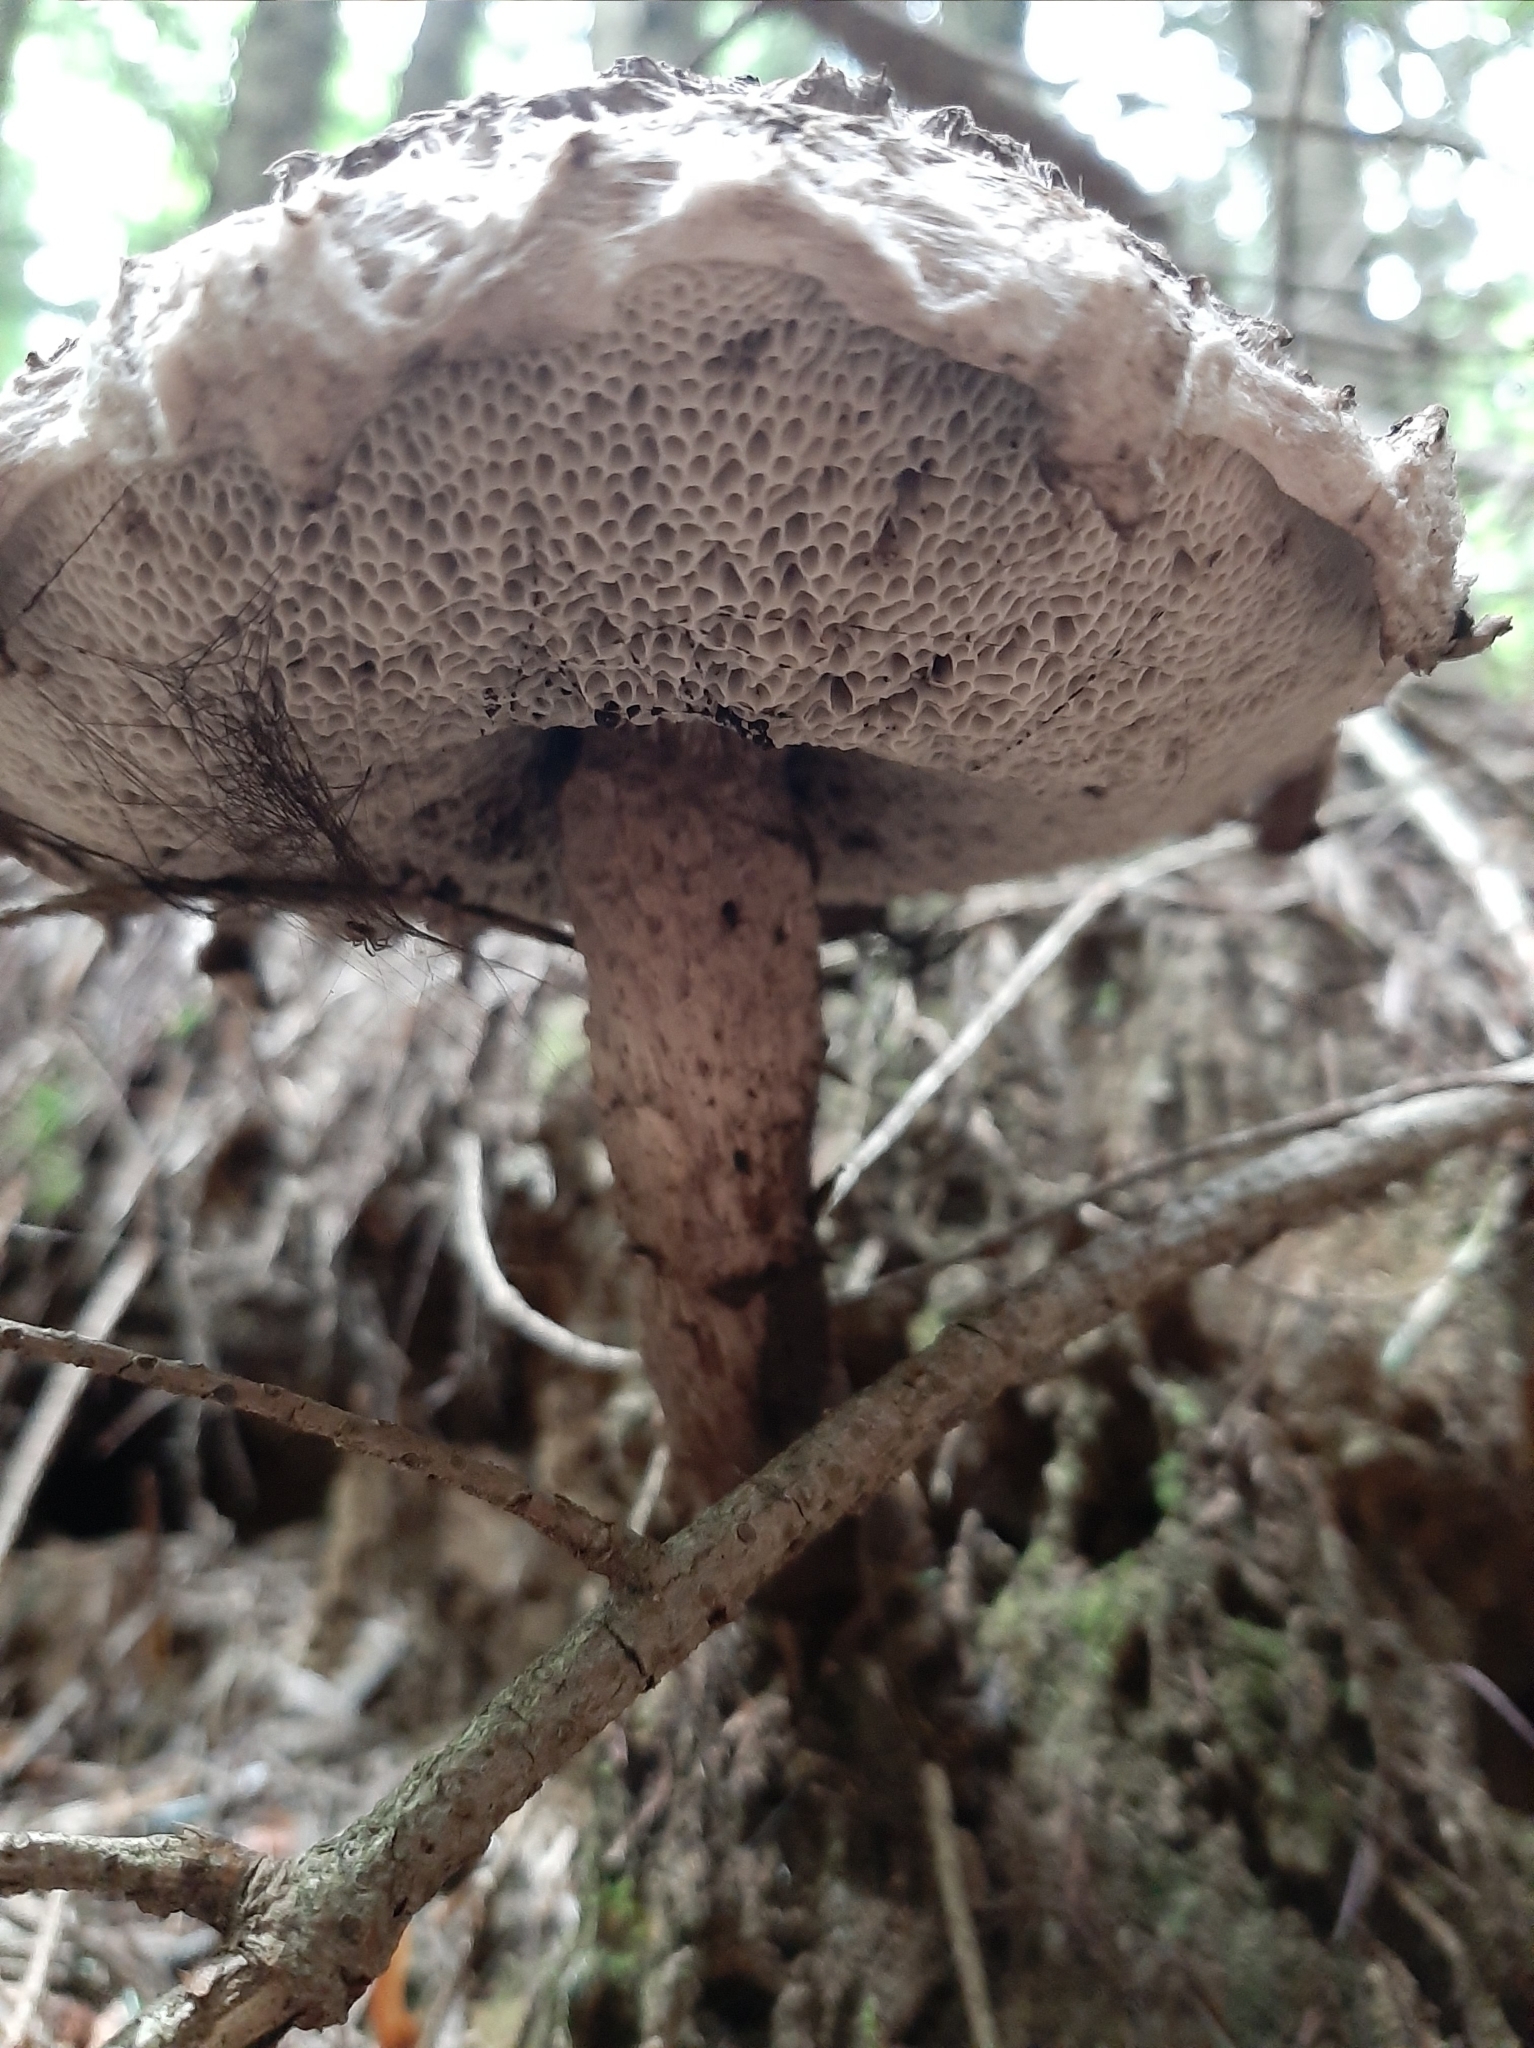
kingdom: Fungi
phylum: Basidiomycota
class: Agaricomycetes
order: Boletales
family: Boletaceae
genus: Strobilomyces
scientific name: Strobilomyces strobilaceus
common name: Old man of the woods
